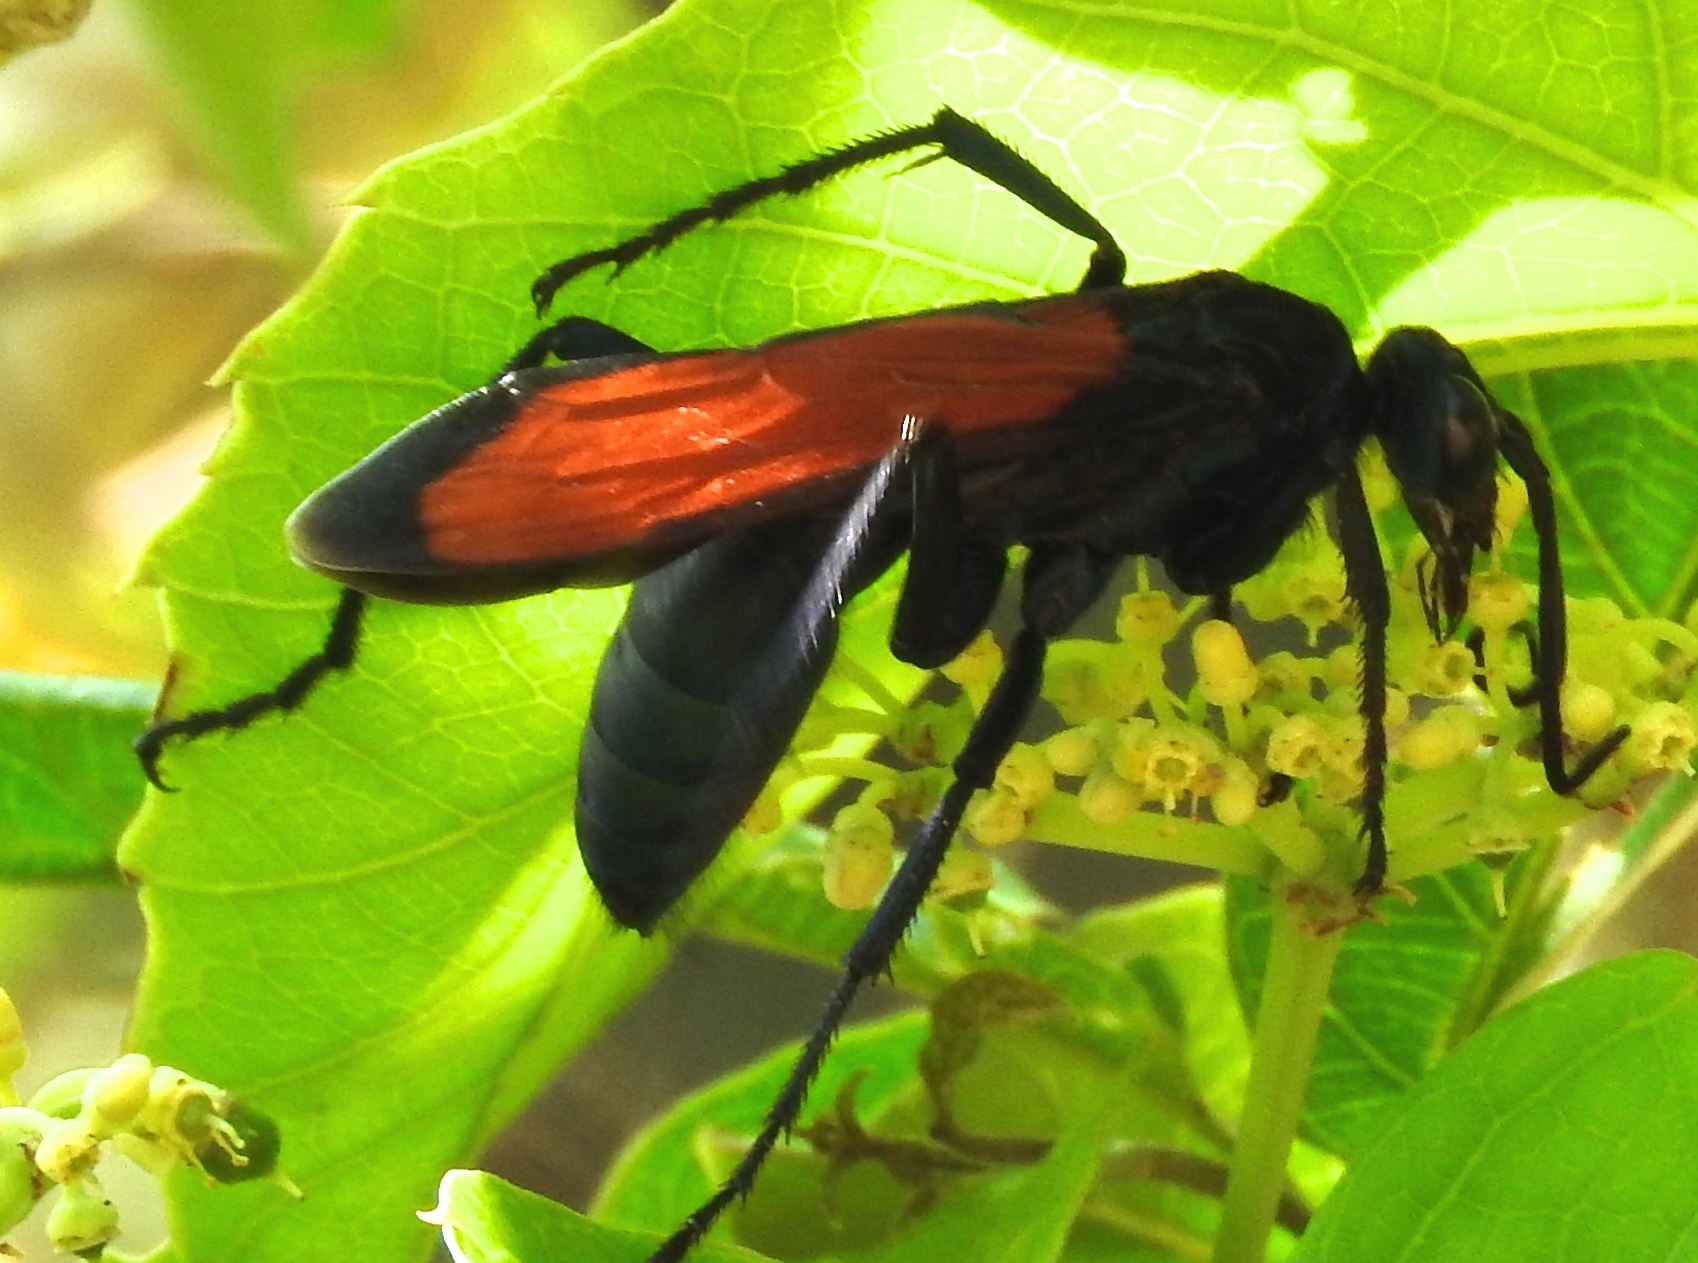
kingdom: Animalia
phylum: Arthropoda
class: Insecta
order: Hymenoptera
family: Pompilidae
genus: Pepsis
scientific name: Pepsis
